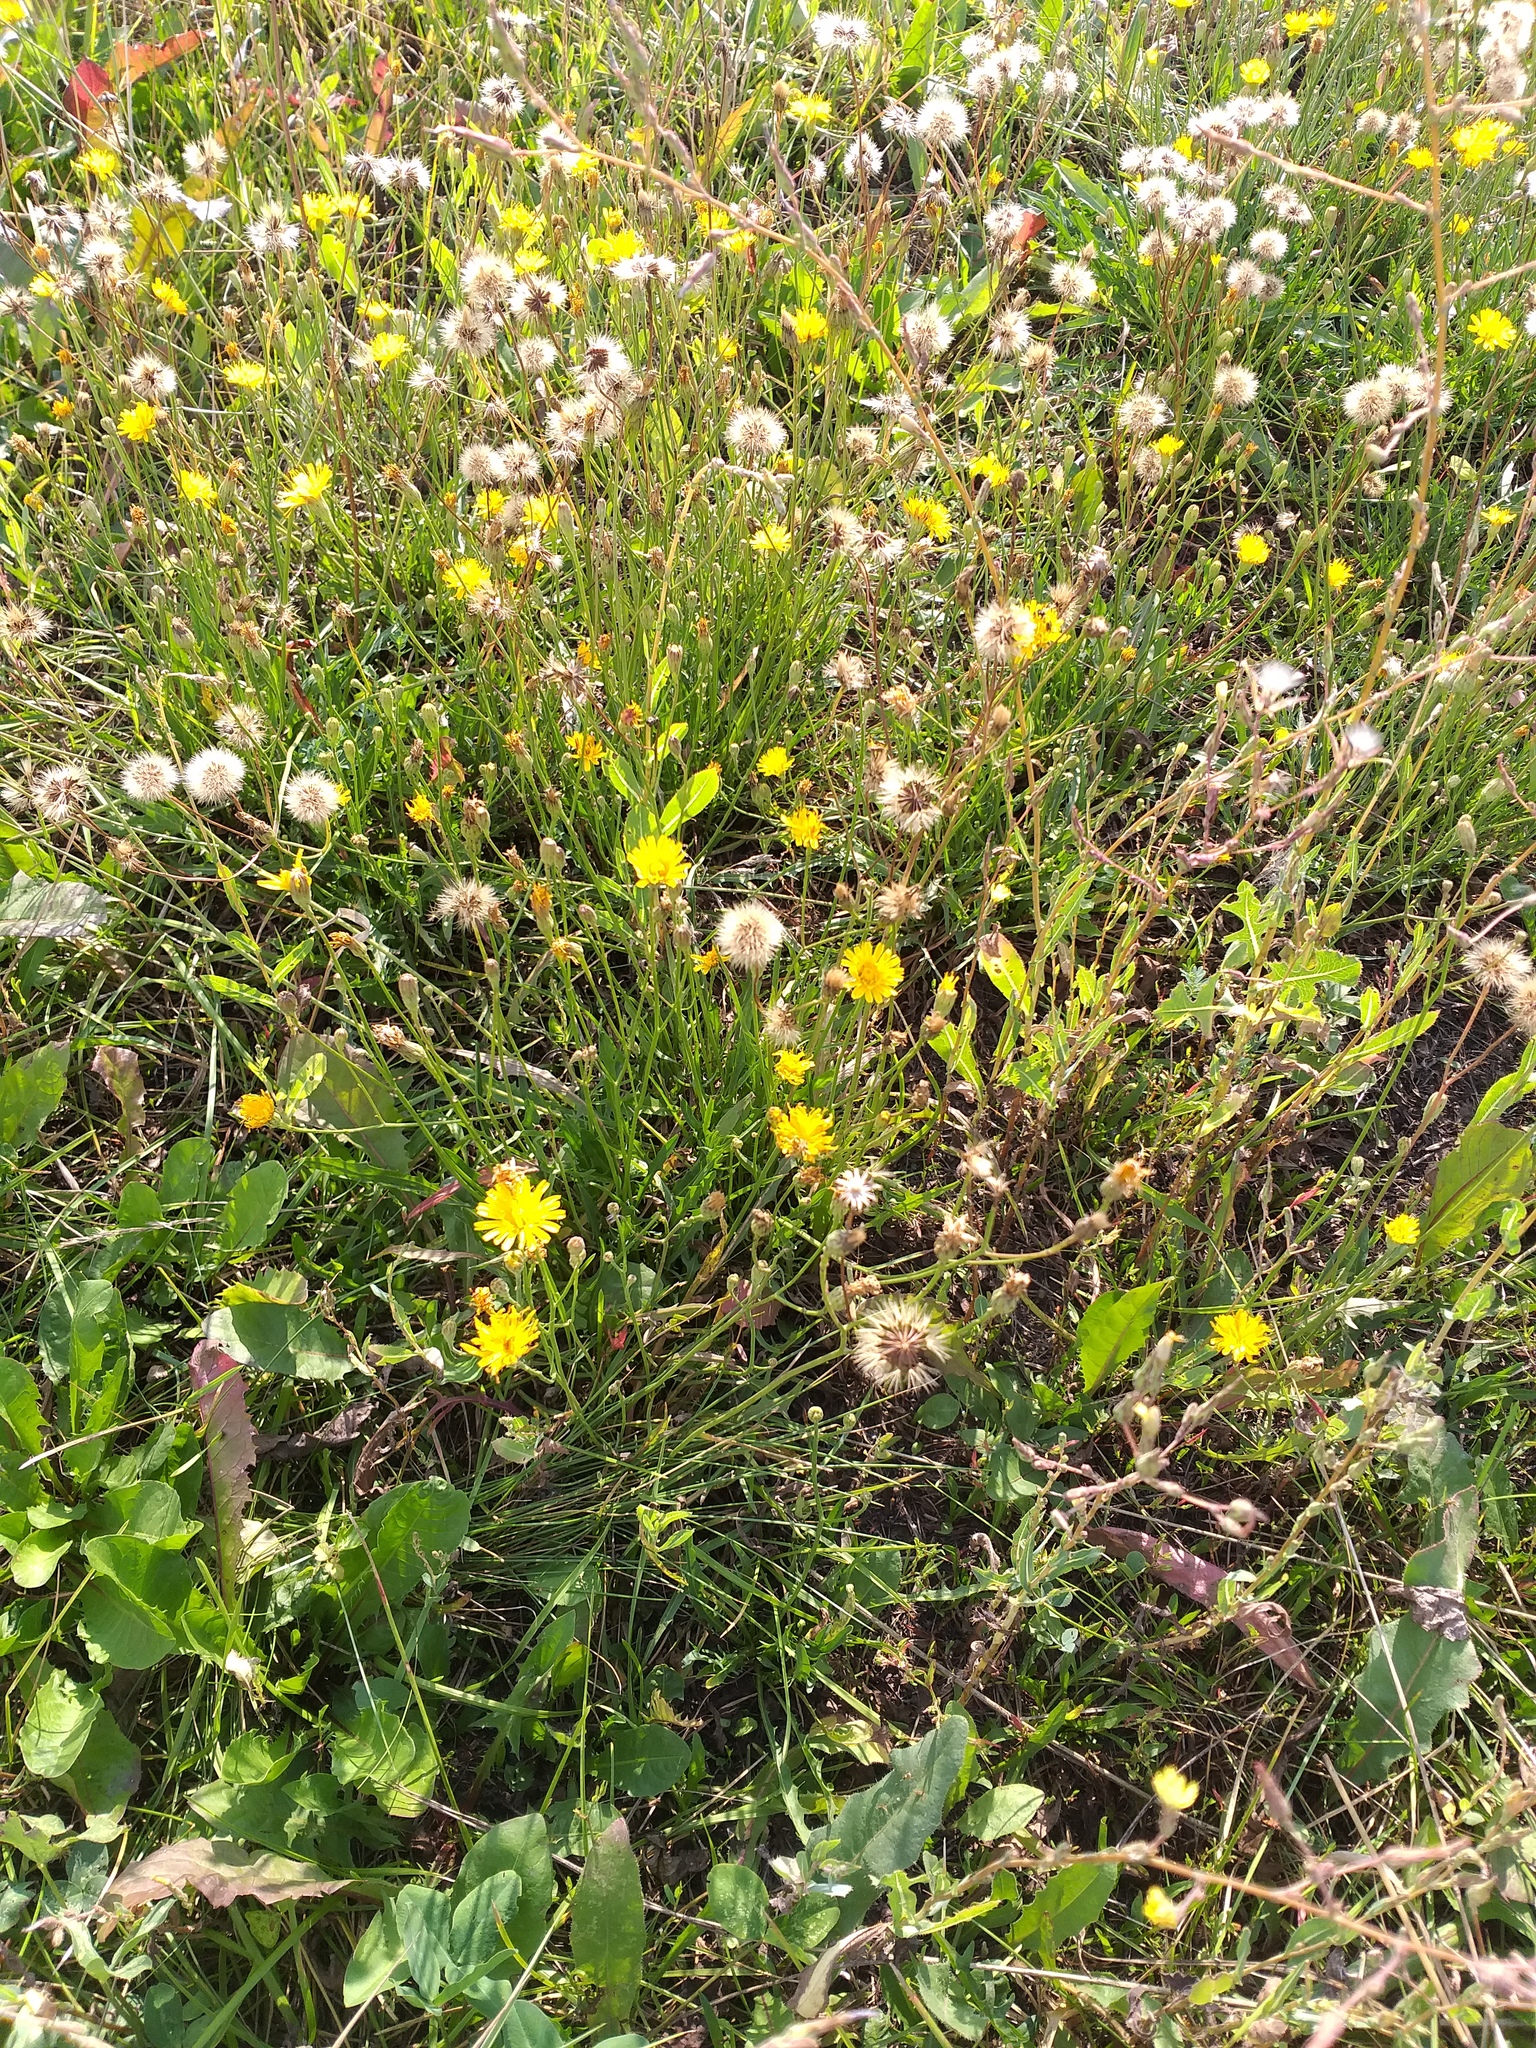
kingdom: Plantae
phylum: Tracheophyta
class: Magnoliopsida
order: Asterales
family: Asteraceae
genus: Scorzoneroides
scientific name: Scorzoneroides autumnalis
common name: Autumn hawkbit
